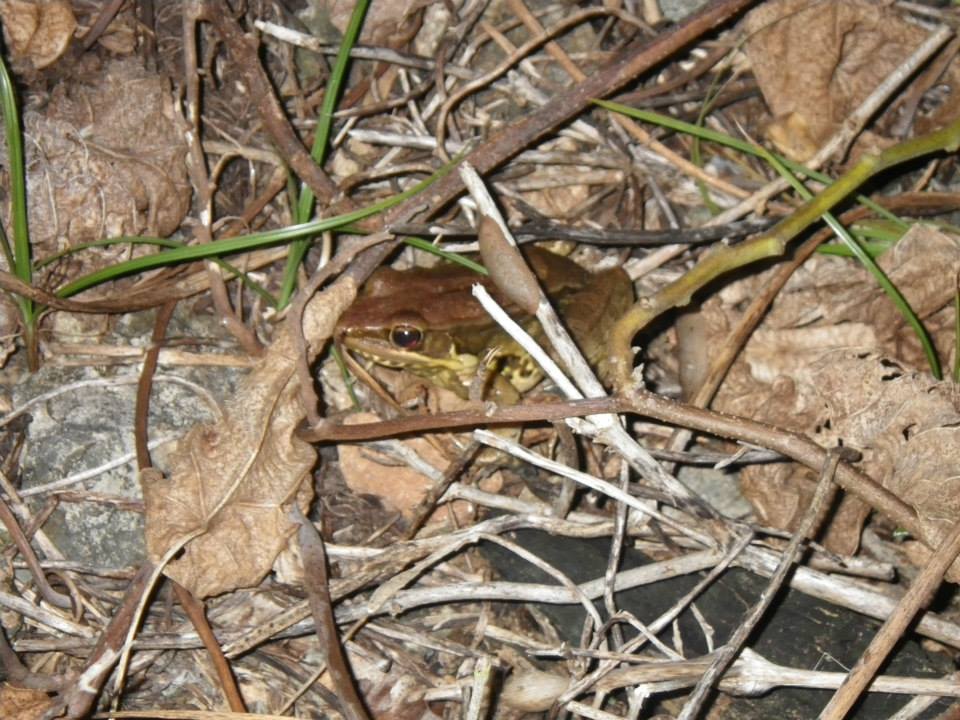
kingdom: Animalia
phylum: Chordata
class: Amphibia
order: Anura
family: Ranidae
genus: Sylvirana
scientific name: Sylvirana guentheri
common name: Guenther's amoy frog
